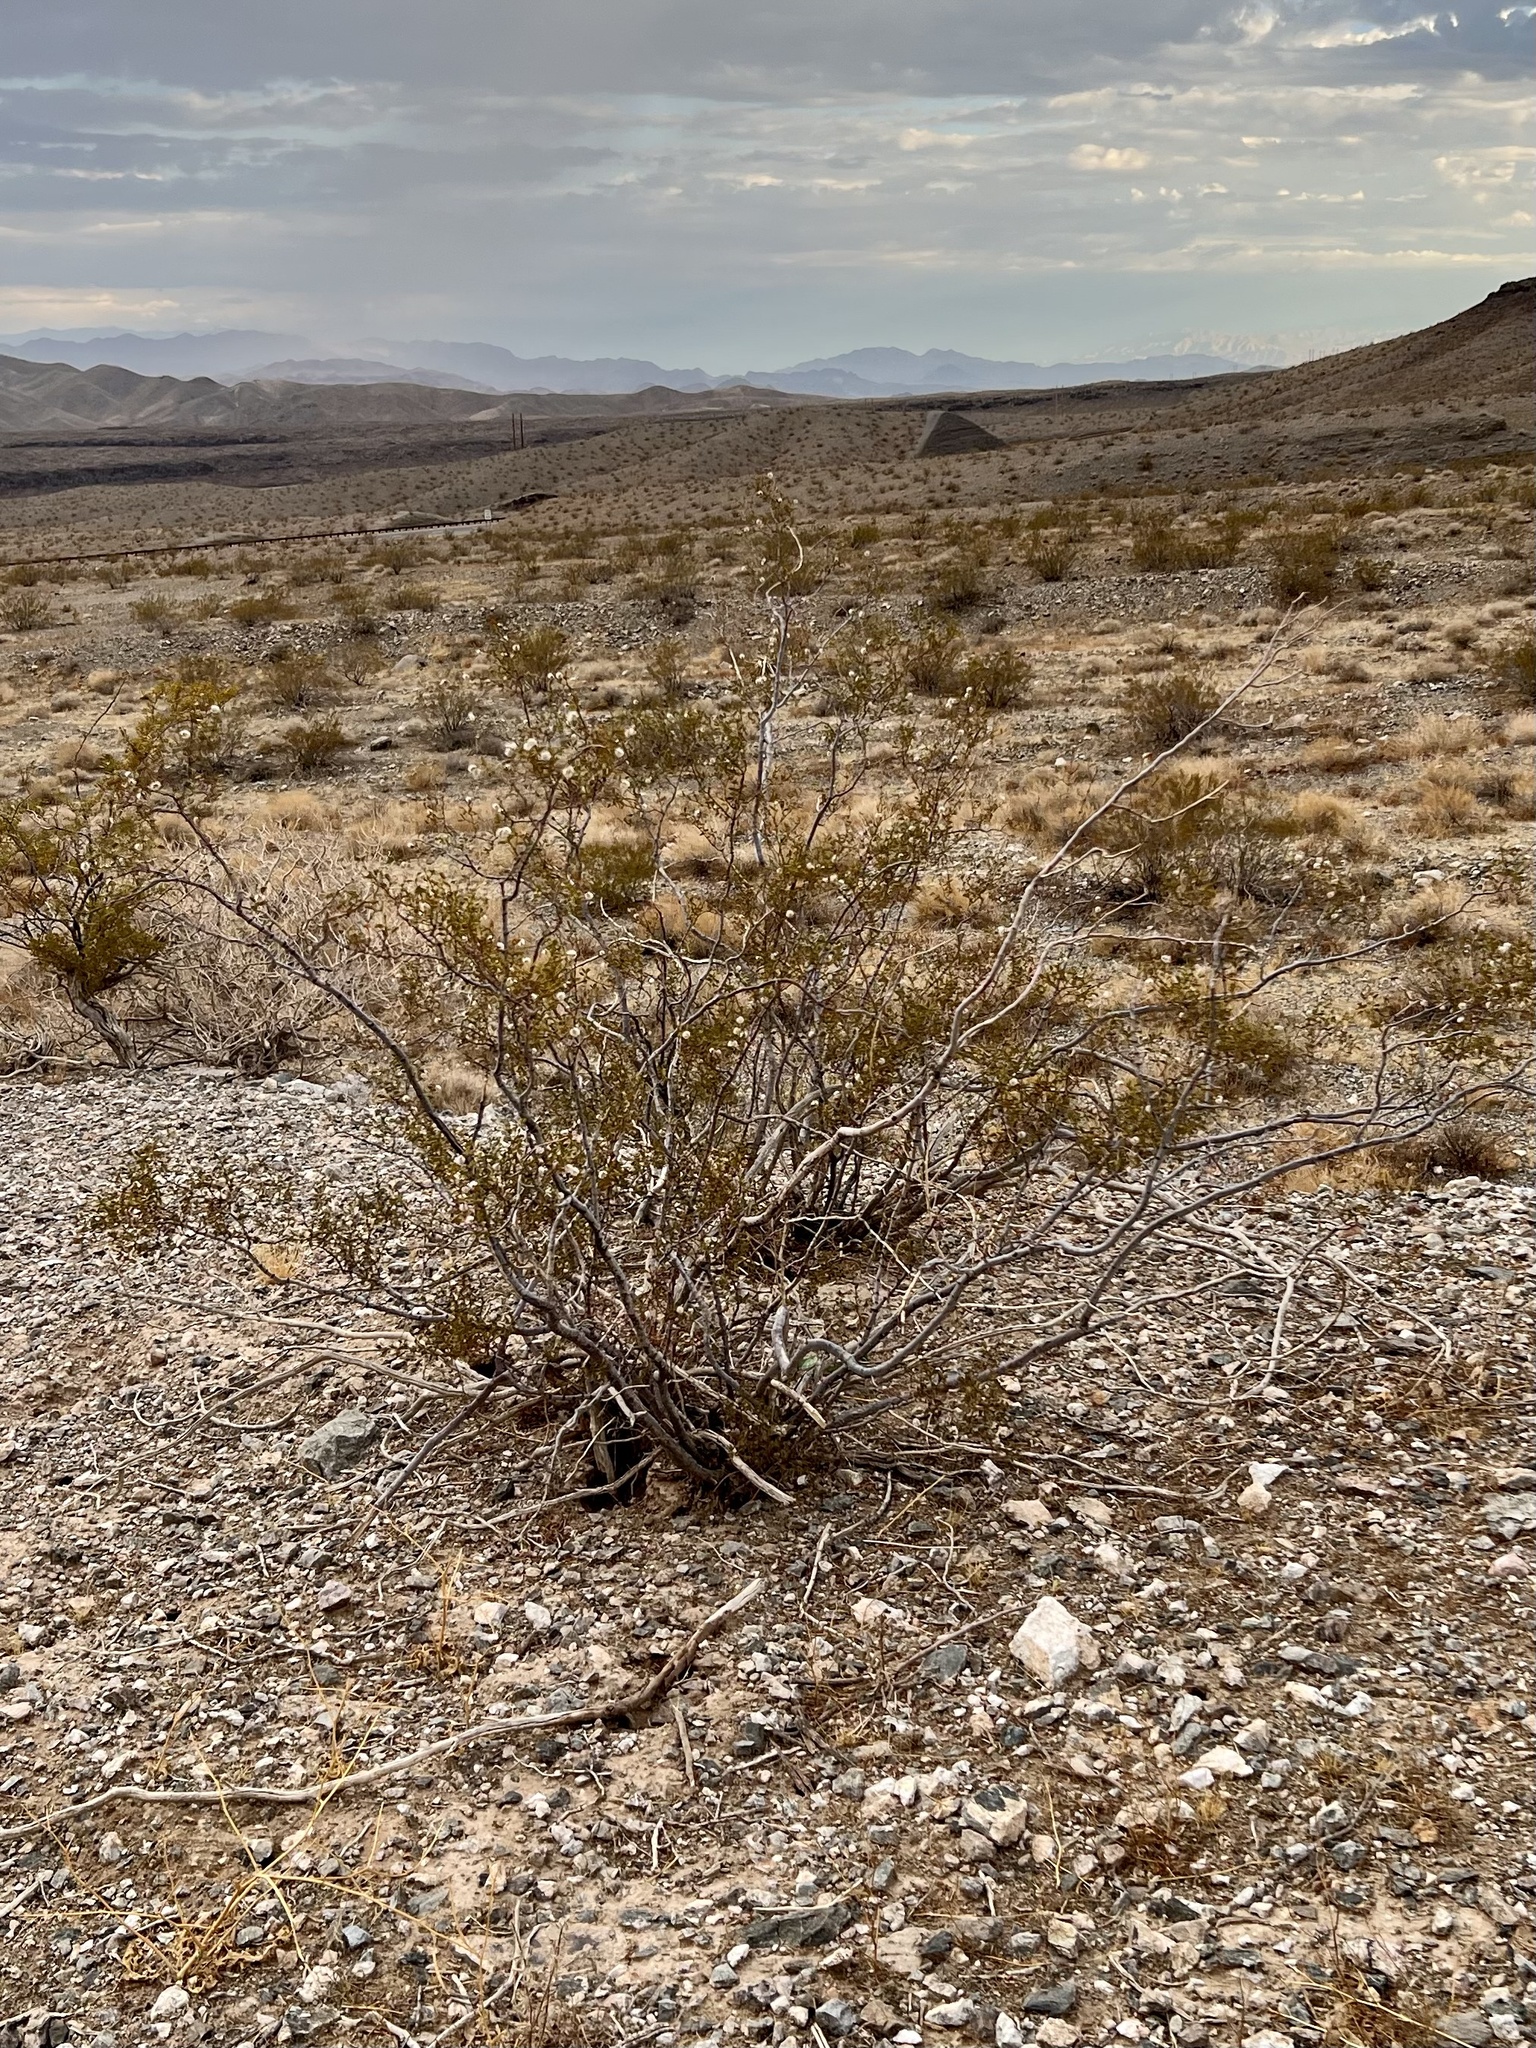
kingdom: Plantae
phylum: Tracheophyta
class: Magnoliopsida
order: Zygophyllales
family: Zygophyllaceae
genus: Larrea
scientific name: Larrea tridentata
